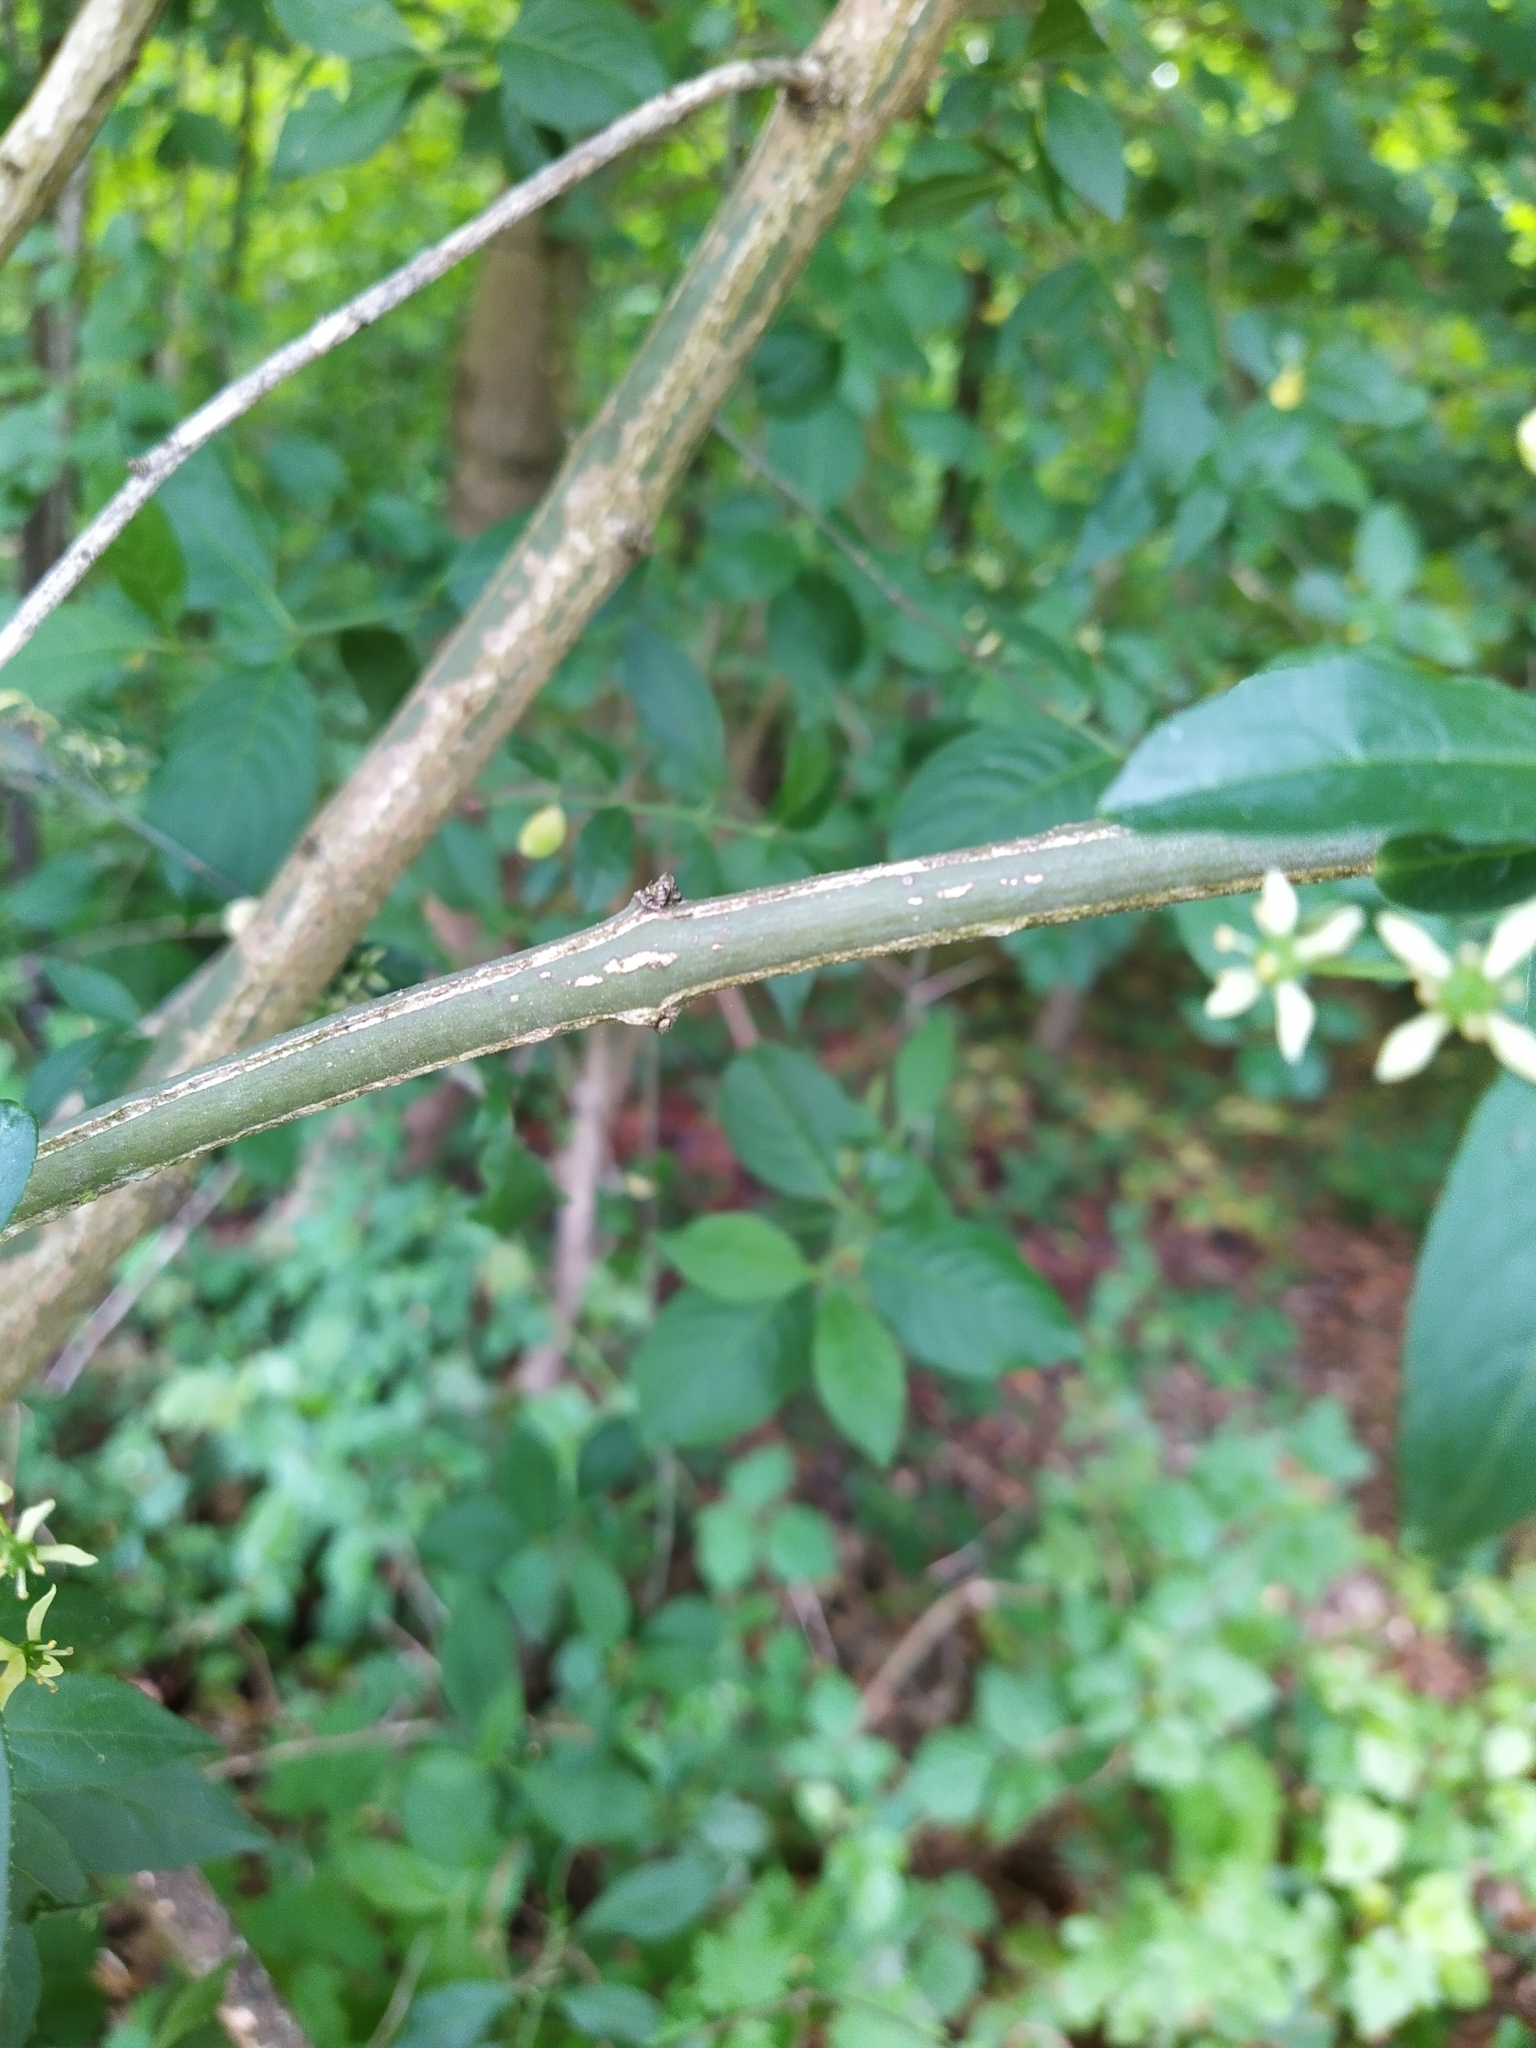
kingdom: Plantae
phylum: Tracheophyta
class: Magnoliopsida
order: Celastrales
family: Celastraceae
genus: Euonymus
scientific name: Euonymus europaeus
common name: Spindle
